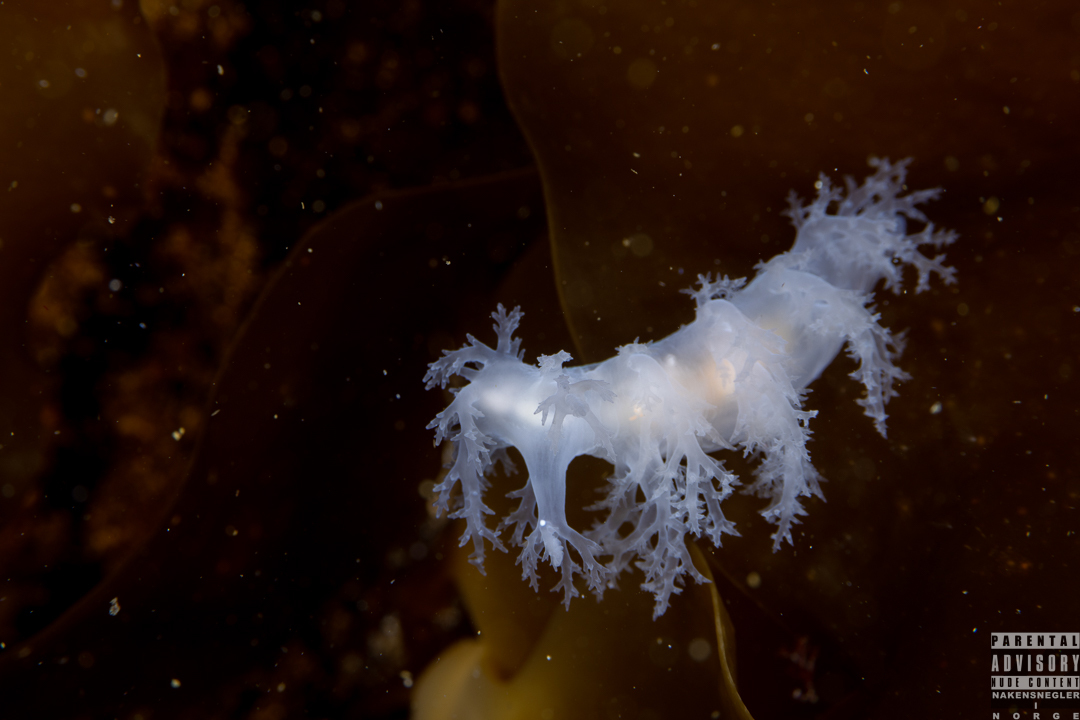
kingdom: Animalia
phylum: Mollusca
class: Gastropoda
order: Nudibranchia
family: Dendronotidae
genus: Dendronotus
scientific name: Dendronotus lacteus
